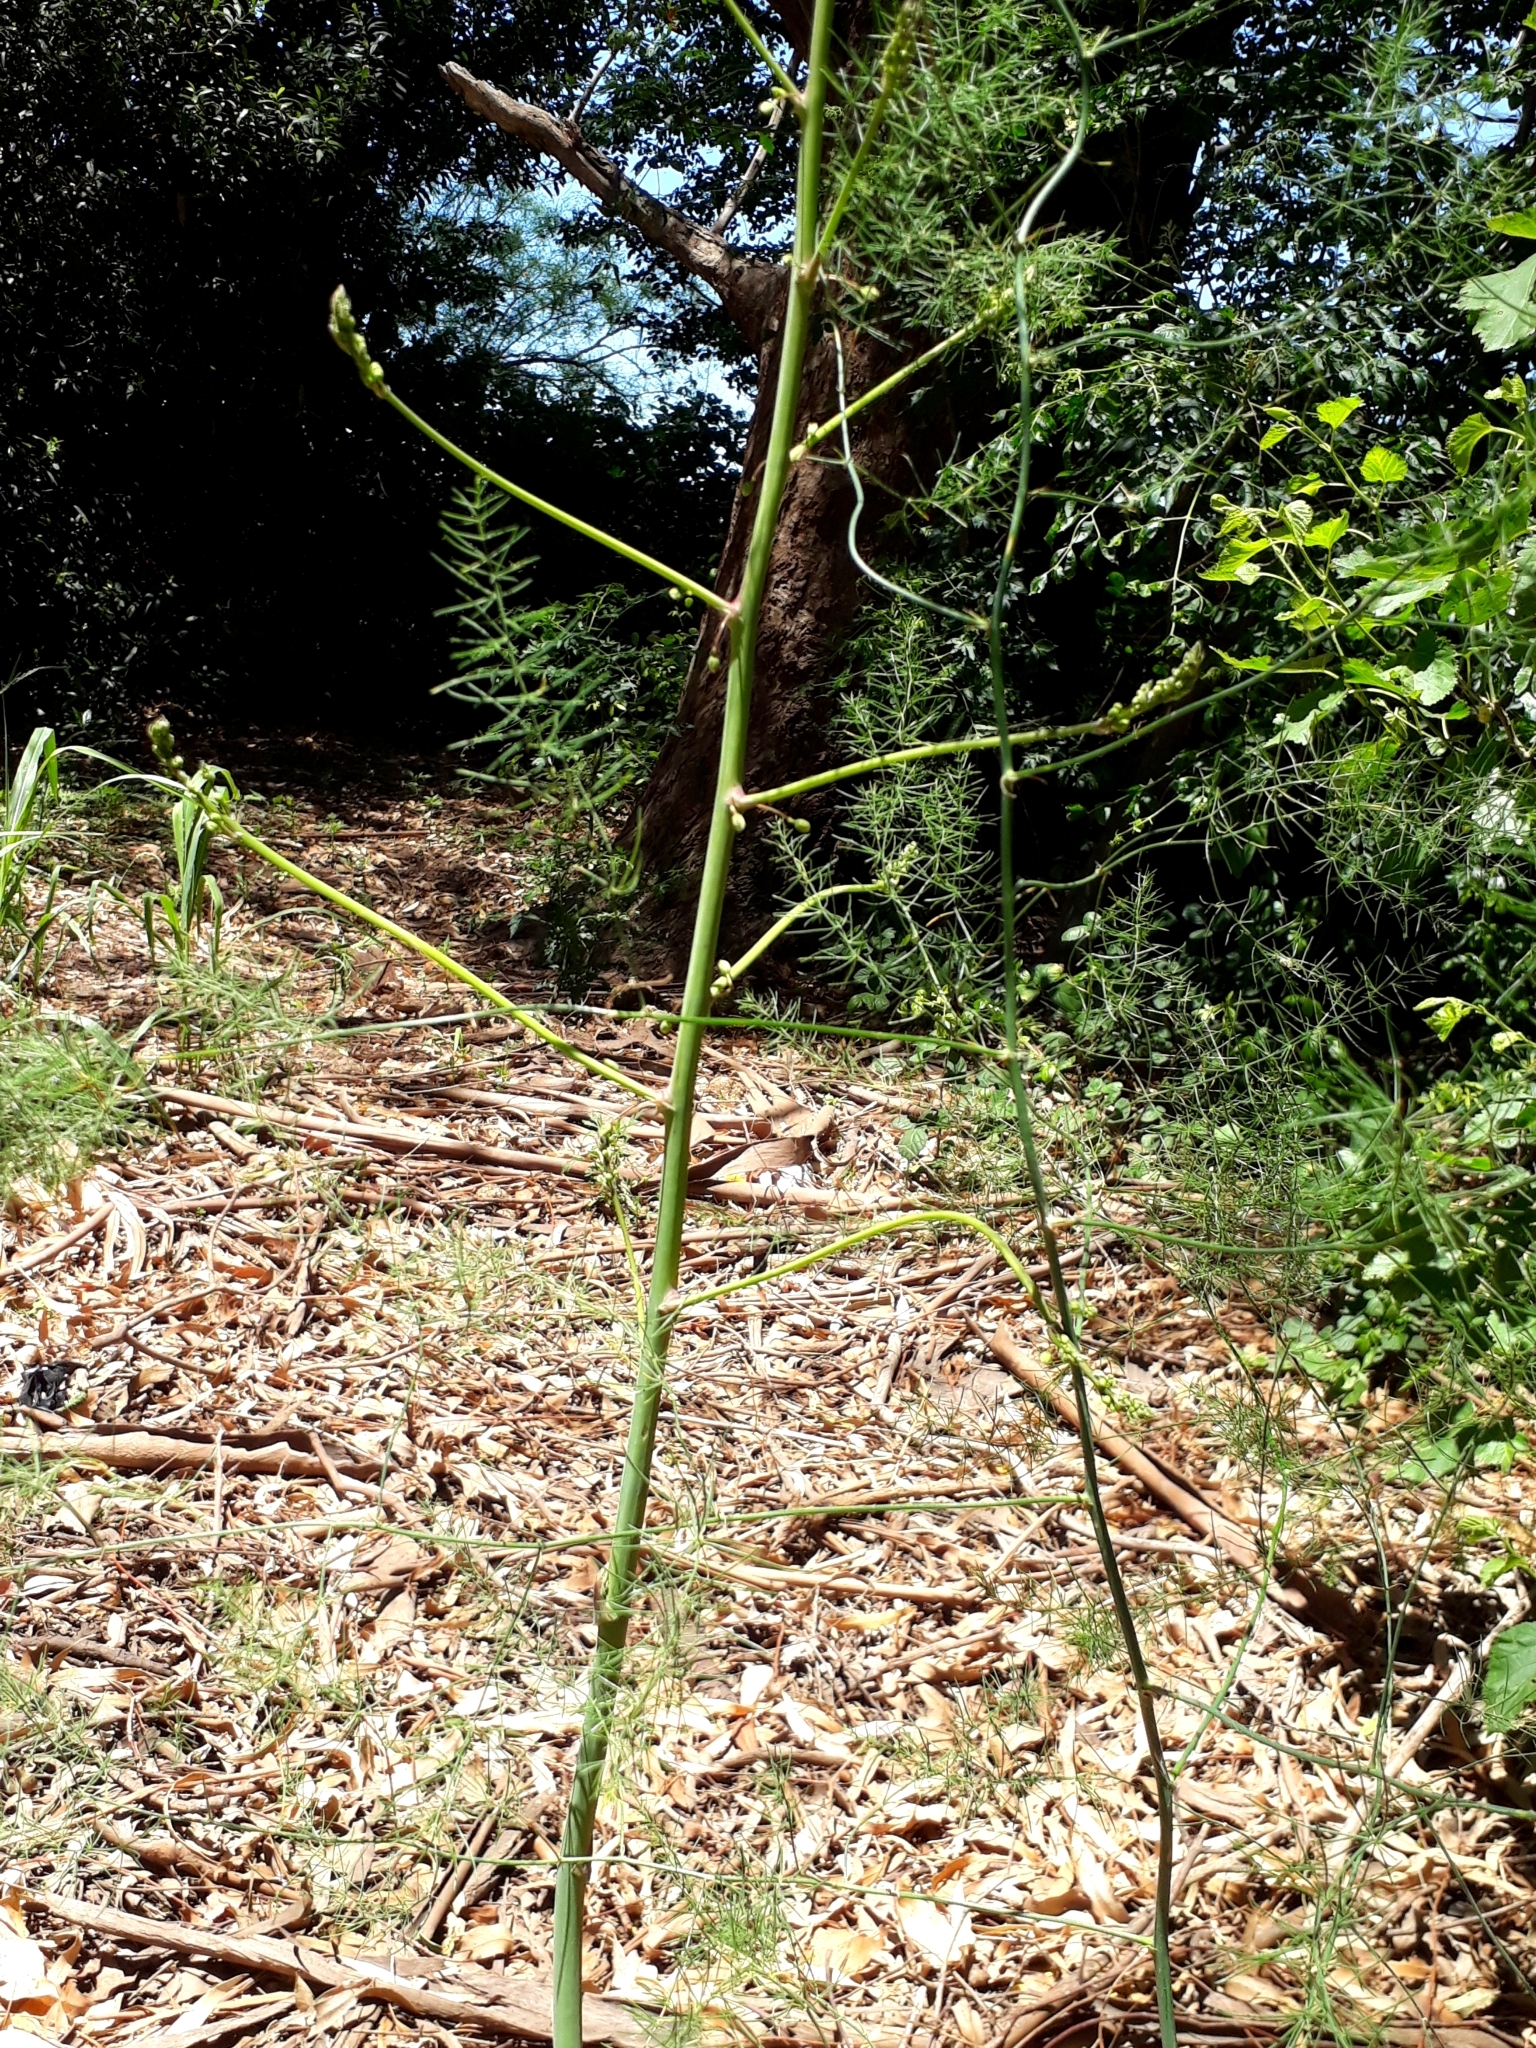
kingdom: Plantae
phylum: Tracheophyta
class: Liliopsida
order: Asparagales
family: Asparagaceae
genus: Asparagus
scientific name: Asparagus officinalis
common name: Garden asparagus
